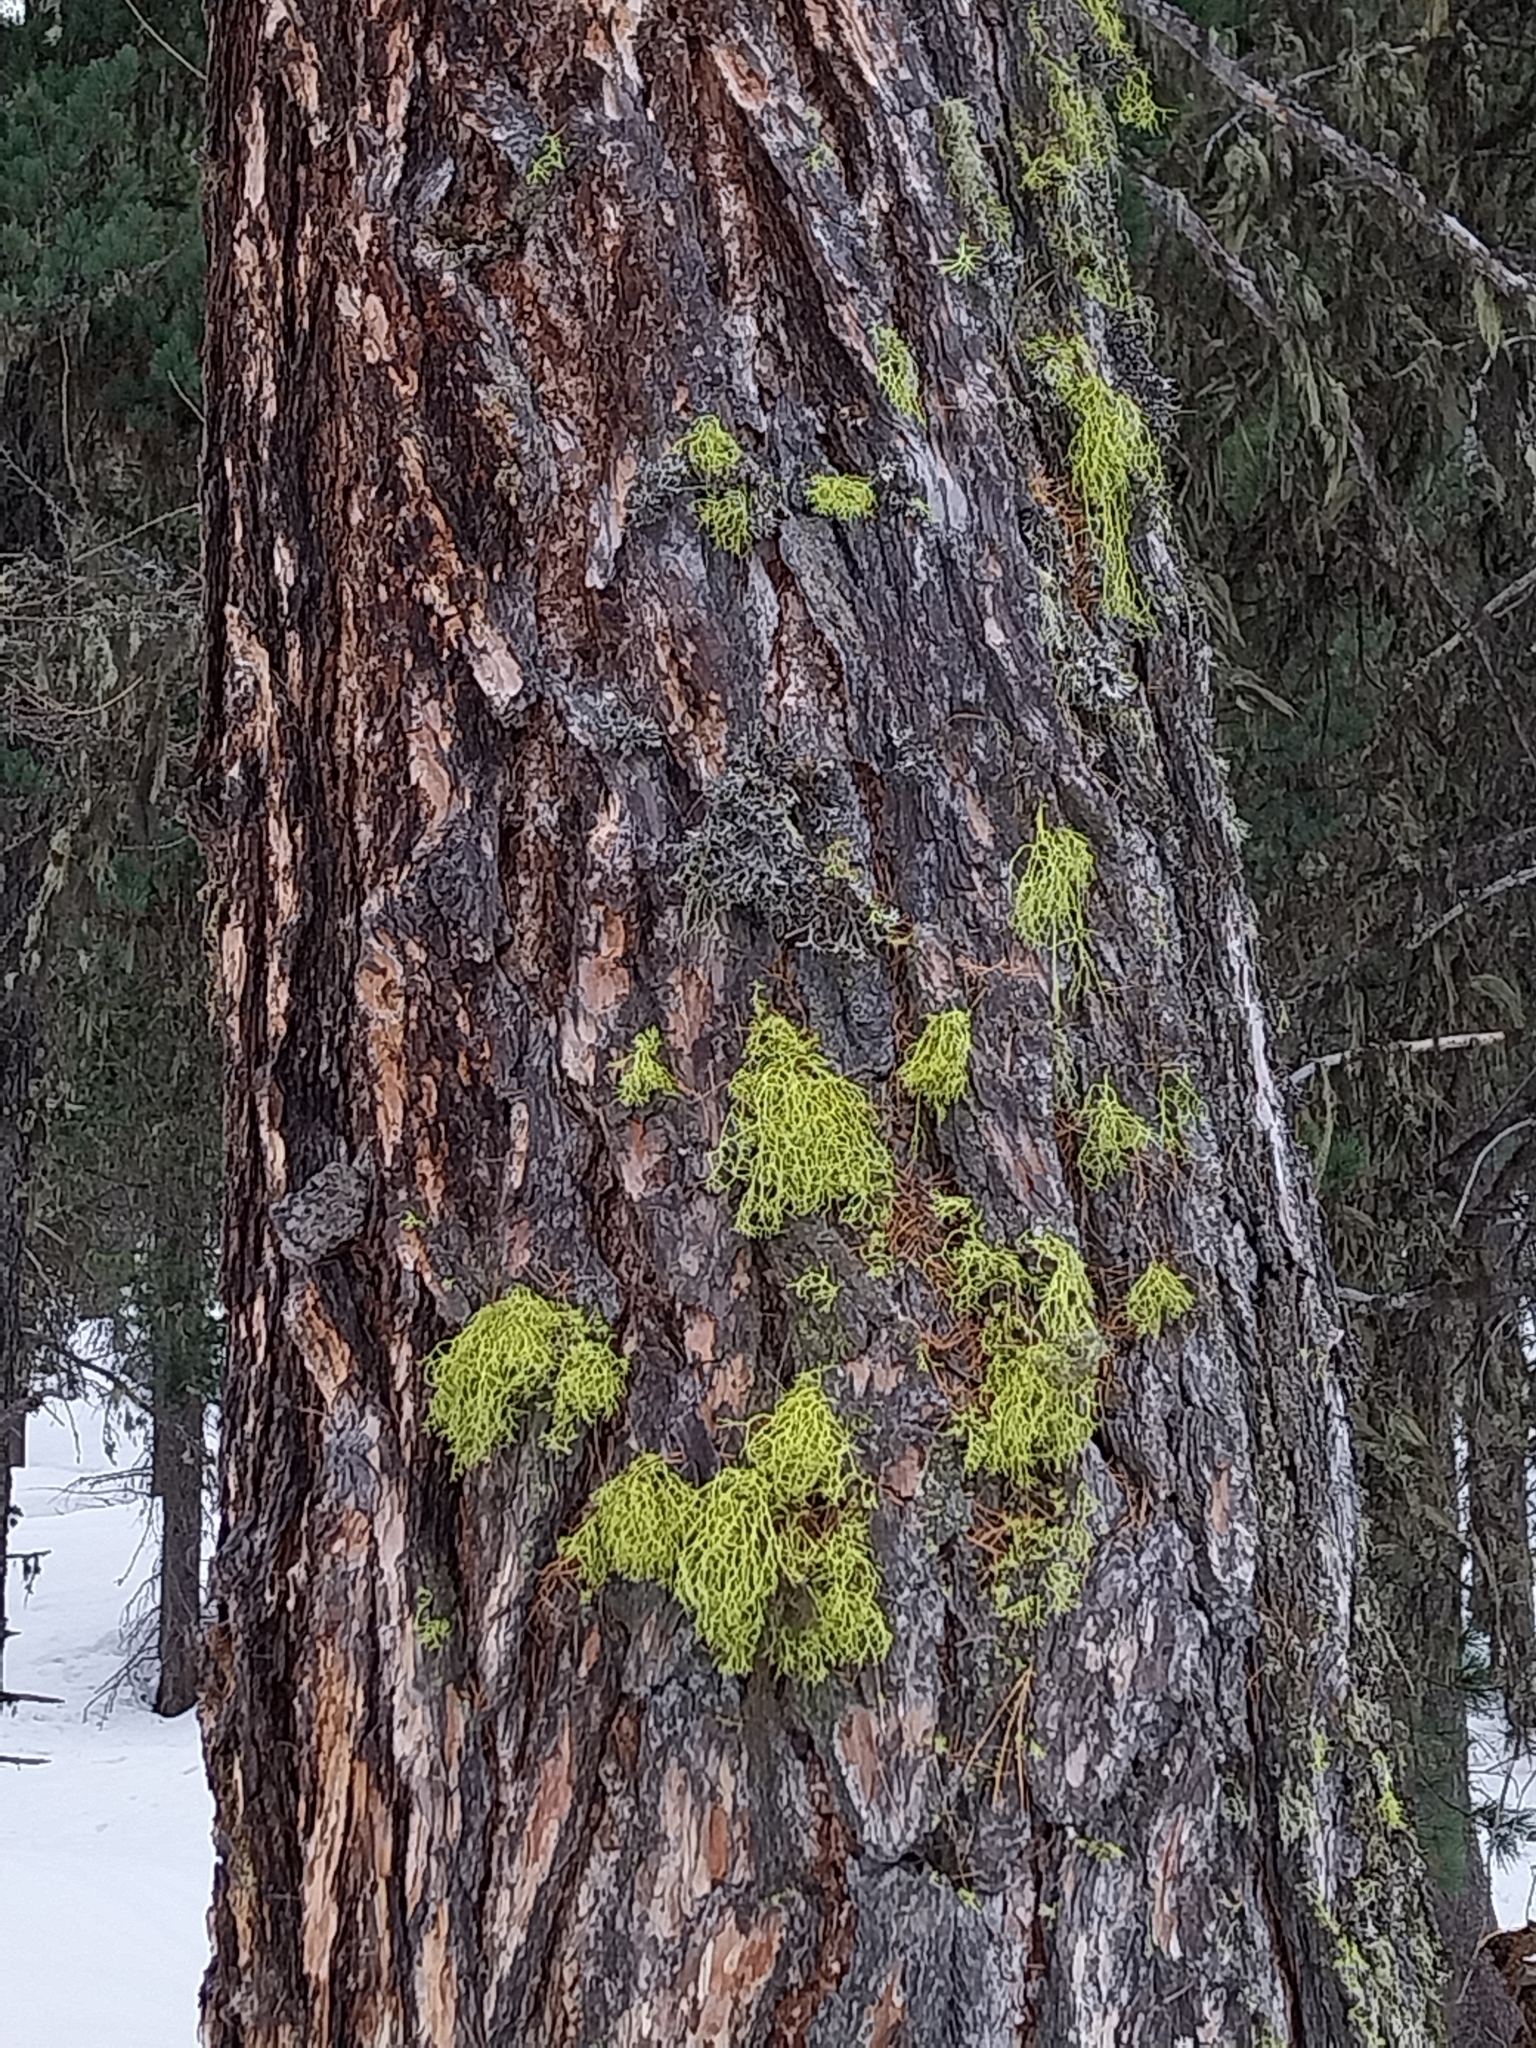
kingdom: Fungi
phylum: Ascomycota
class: Lecanoromycetes
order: Lecanorales
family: Parmeliaceae
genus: Letharia
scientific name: Letharia vulpina
